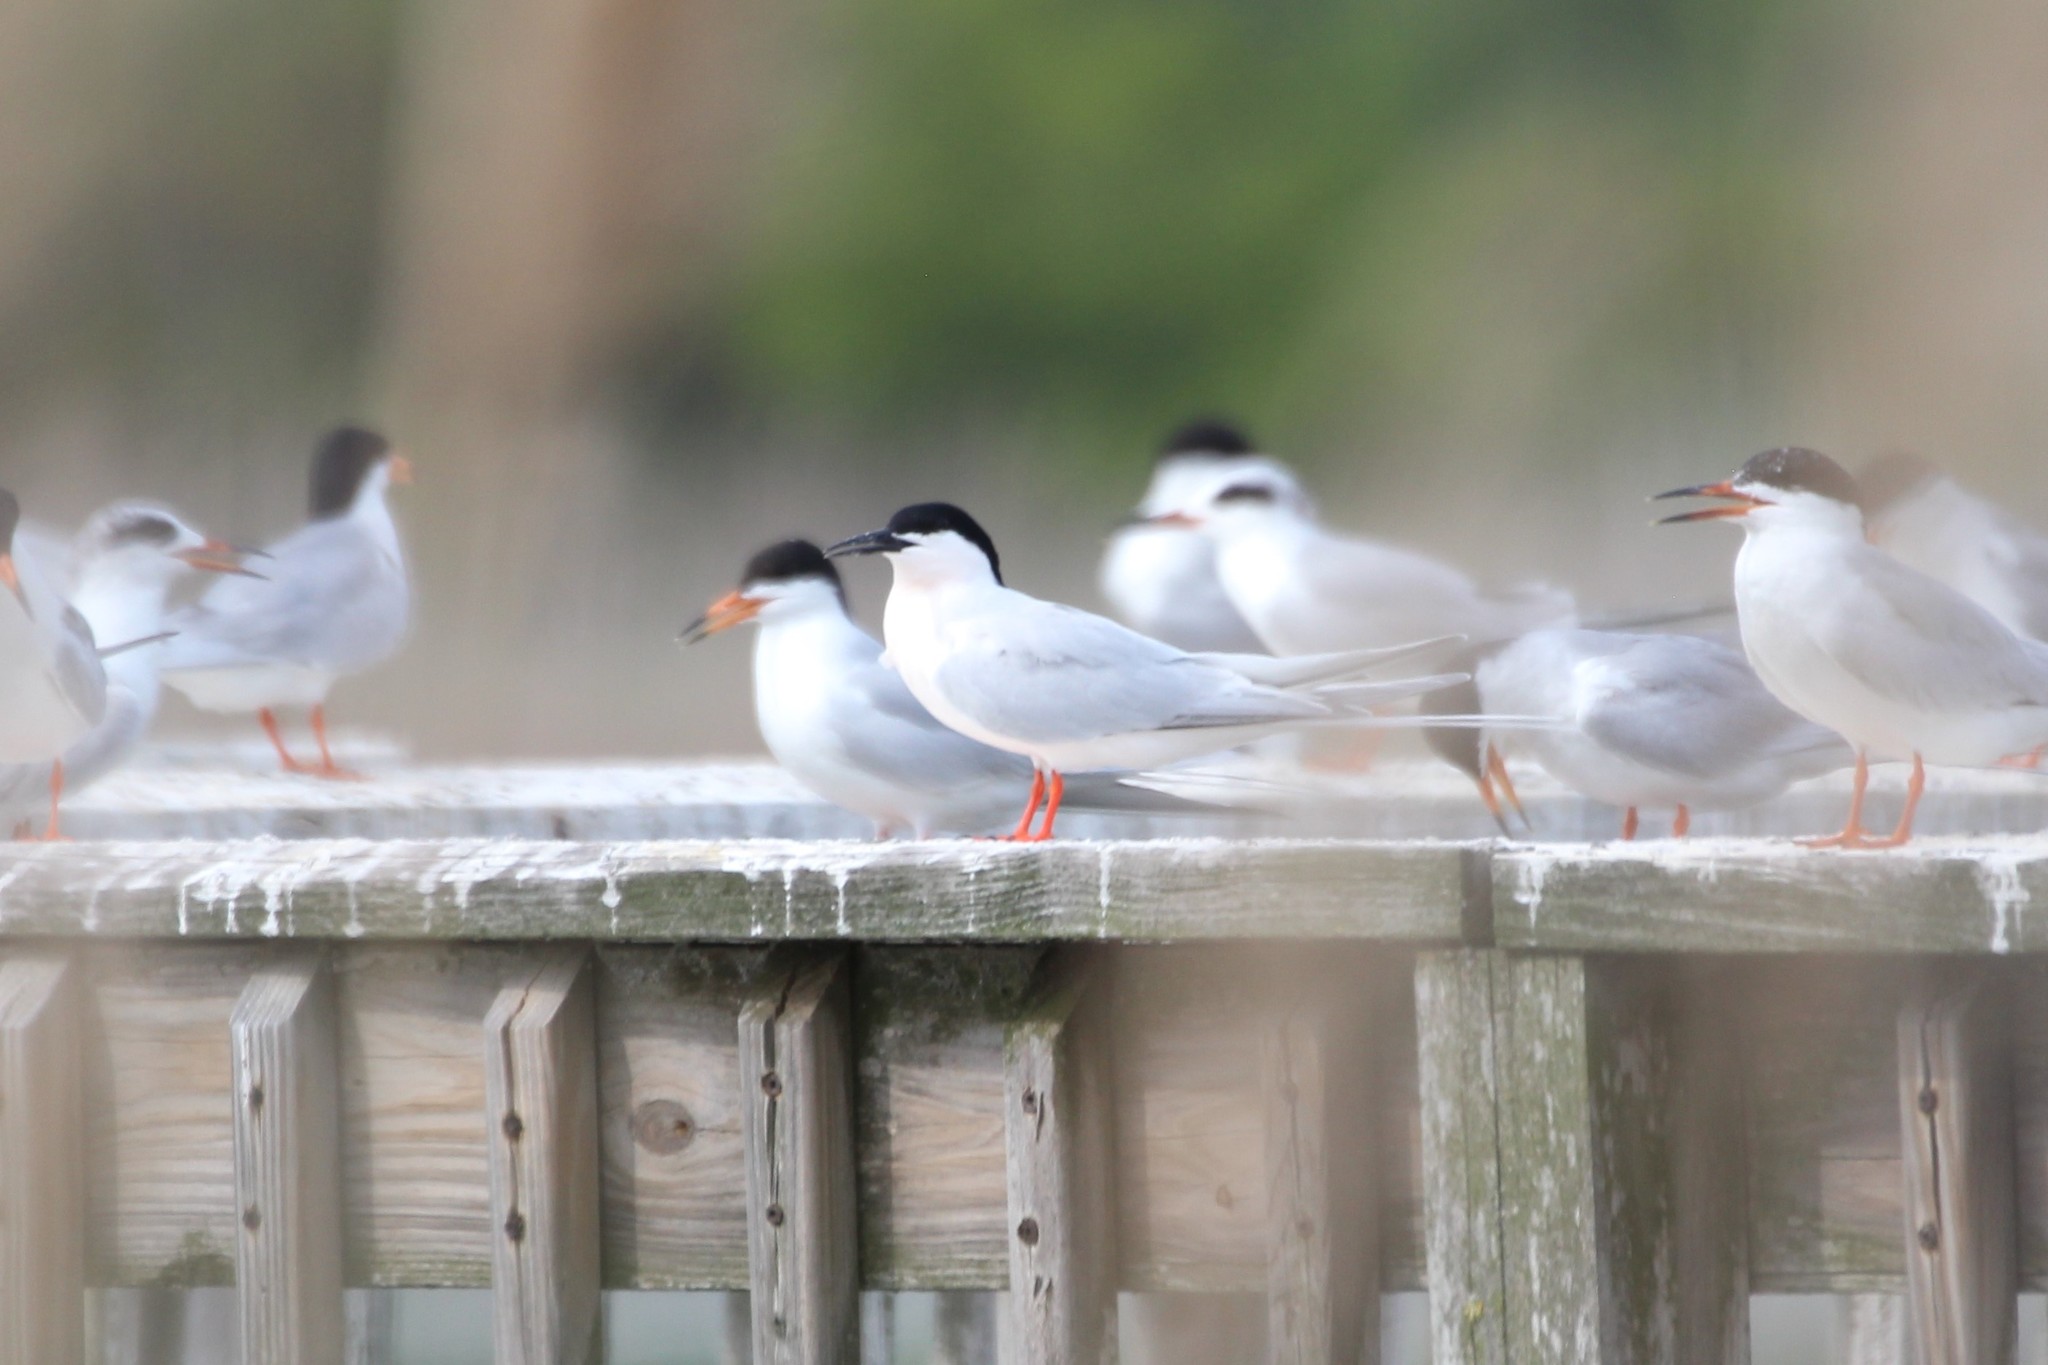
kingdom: Animalia
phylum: Chordata
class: Aves
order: Charadriiformes
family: Laridae
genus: Sterna
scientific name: Sterna dougallii
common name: Roseate tern
